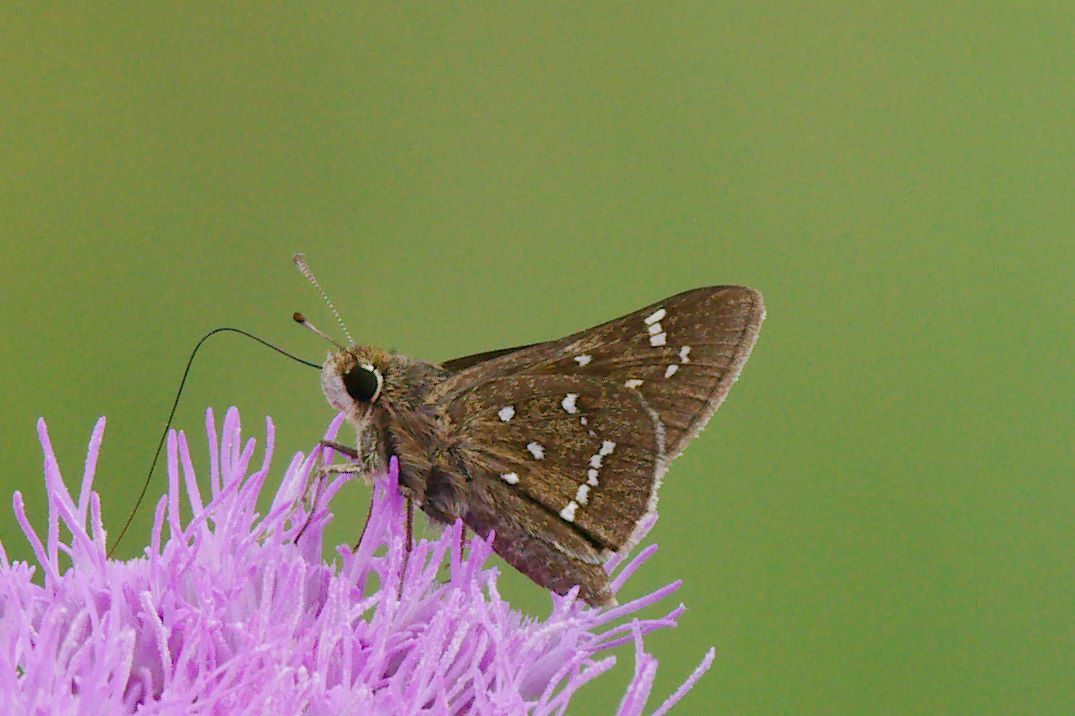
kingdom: Animalia
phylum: Arthropoda
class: Insecta
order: Lepidoptera
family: Hesperiidae
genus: Atrytonopsis
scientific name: Atrytonopsis loammi
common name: Loammi skipper
